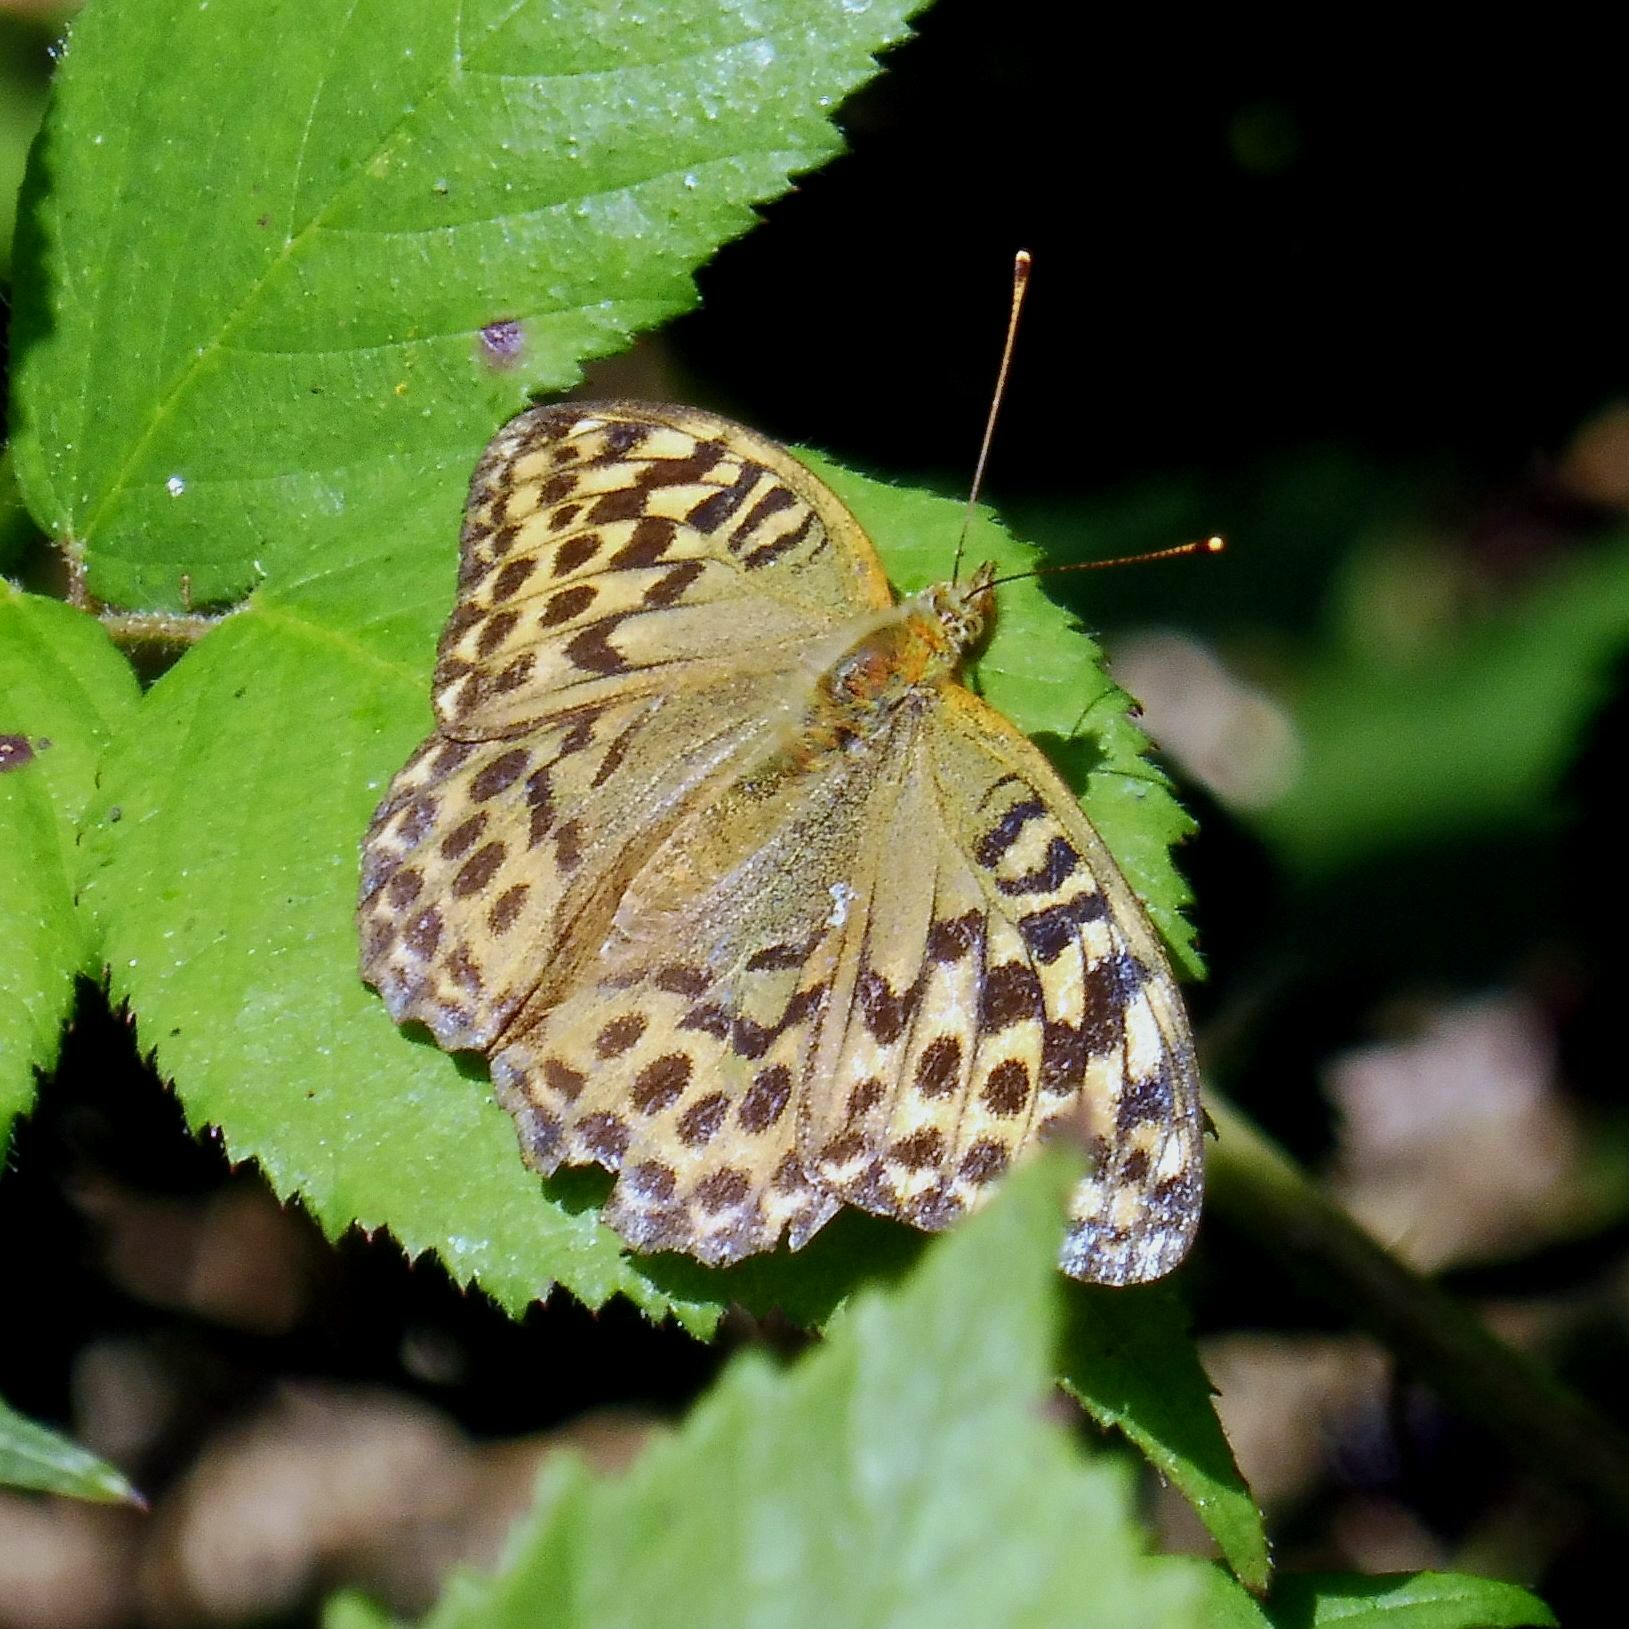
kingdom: Animalia
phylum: Arthropoda
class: Insecta
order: Lepidoptera
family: Nymphalidae
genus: Argynnis
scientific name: Argynnis paphia
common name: Silver-washed fritillary
